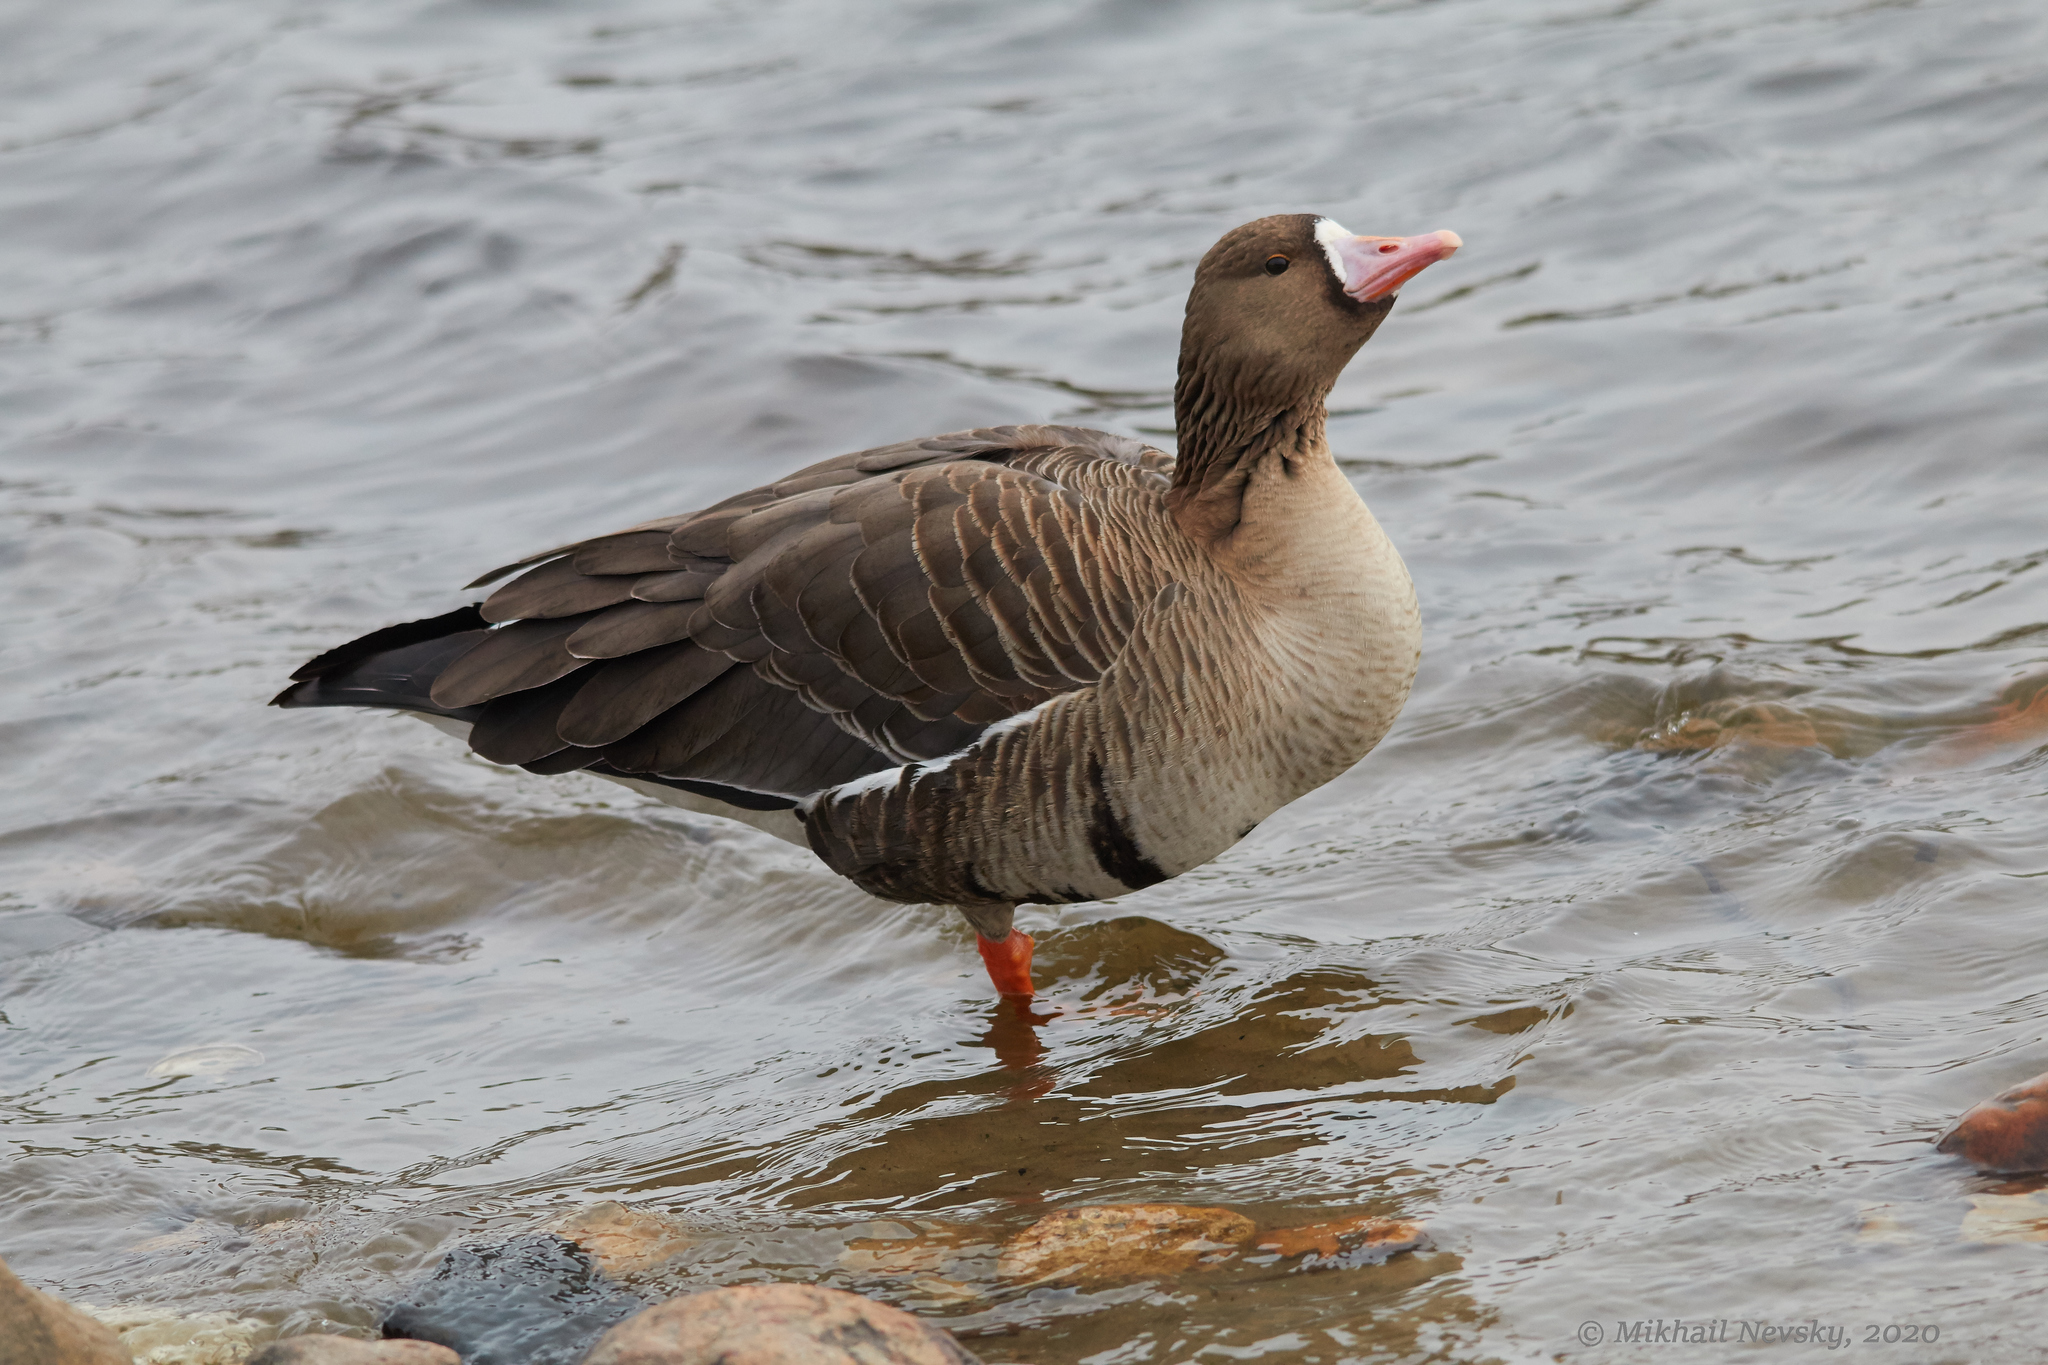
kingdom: Animalia
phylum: Chordata
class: Aves
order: Anseriformes
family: Anatidae
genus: Anser
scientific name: Anser albifrons
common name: Greater white-fronted goose
